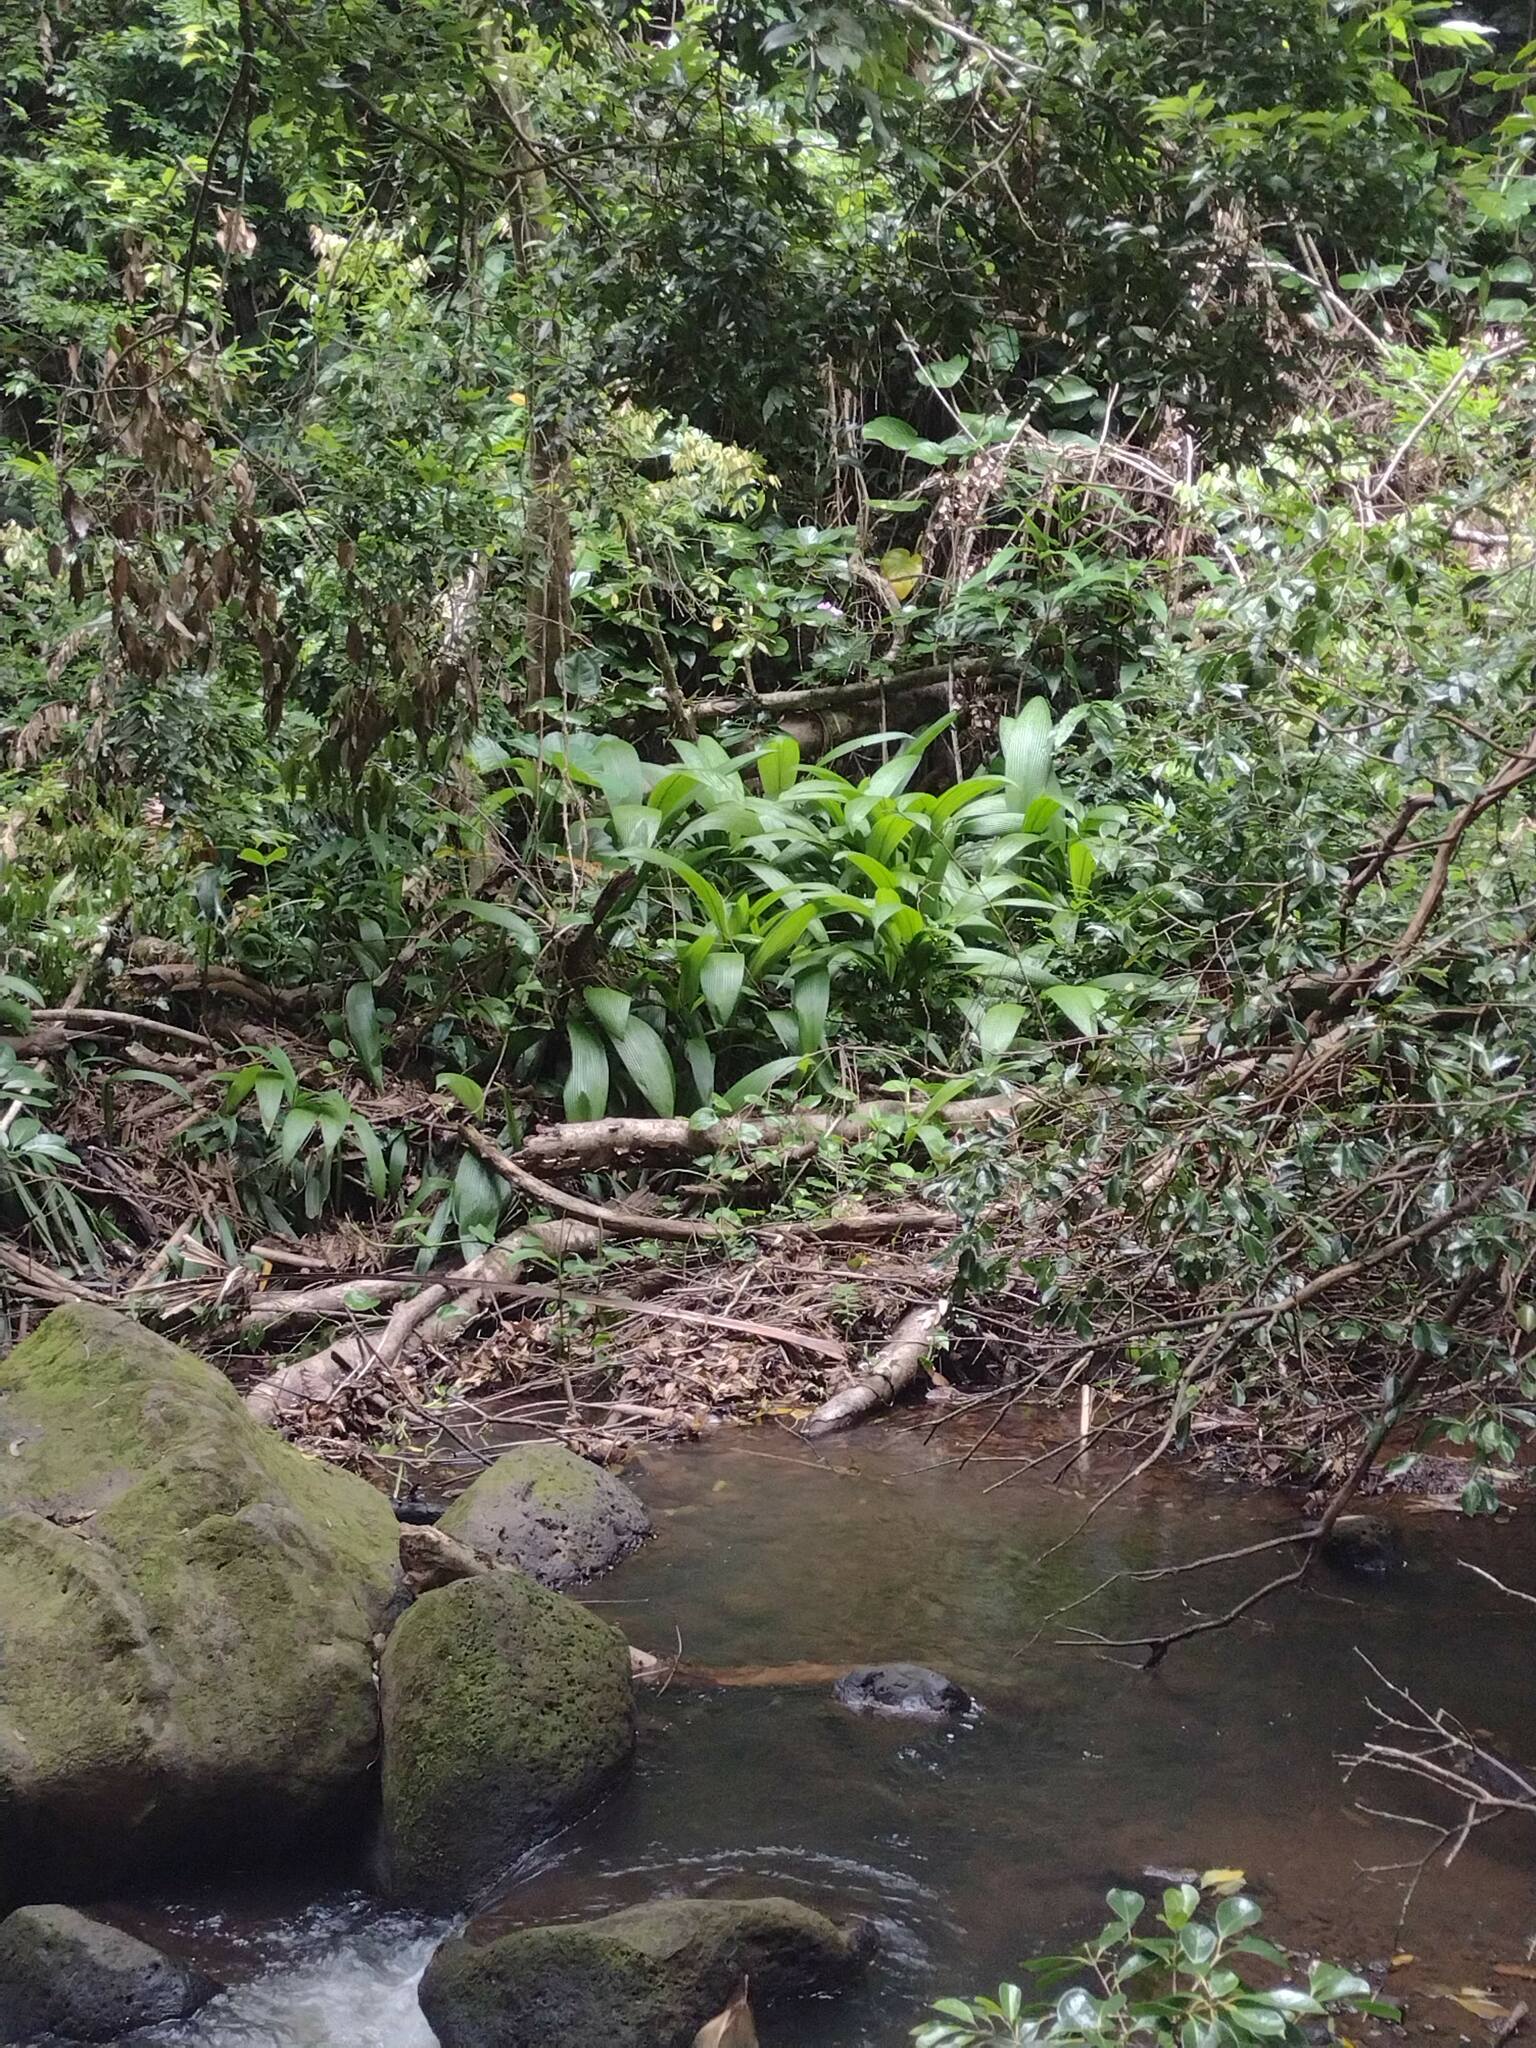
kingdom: Plantae
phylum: Tracheophyta
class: Liliopsida
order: Asparagales
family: Hypoxidaceae
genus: Curculigo
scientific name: Curculigo capitulata
